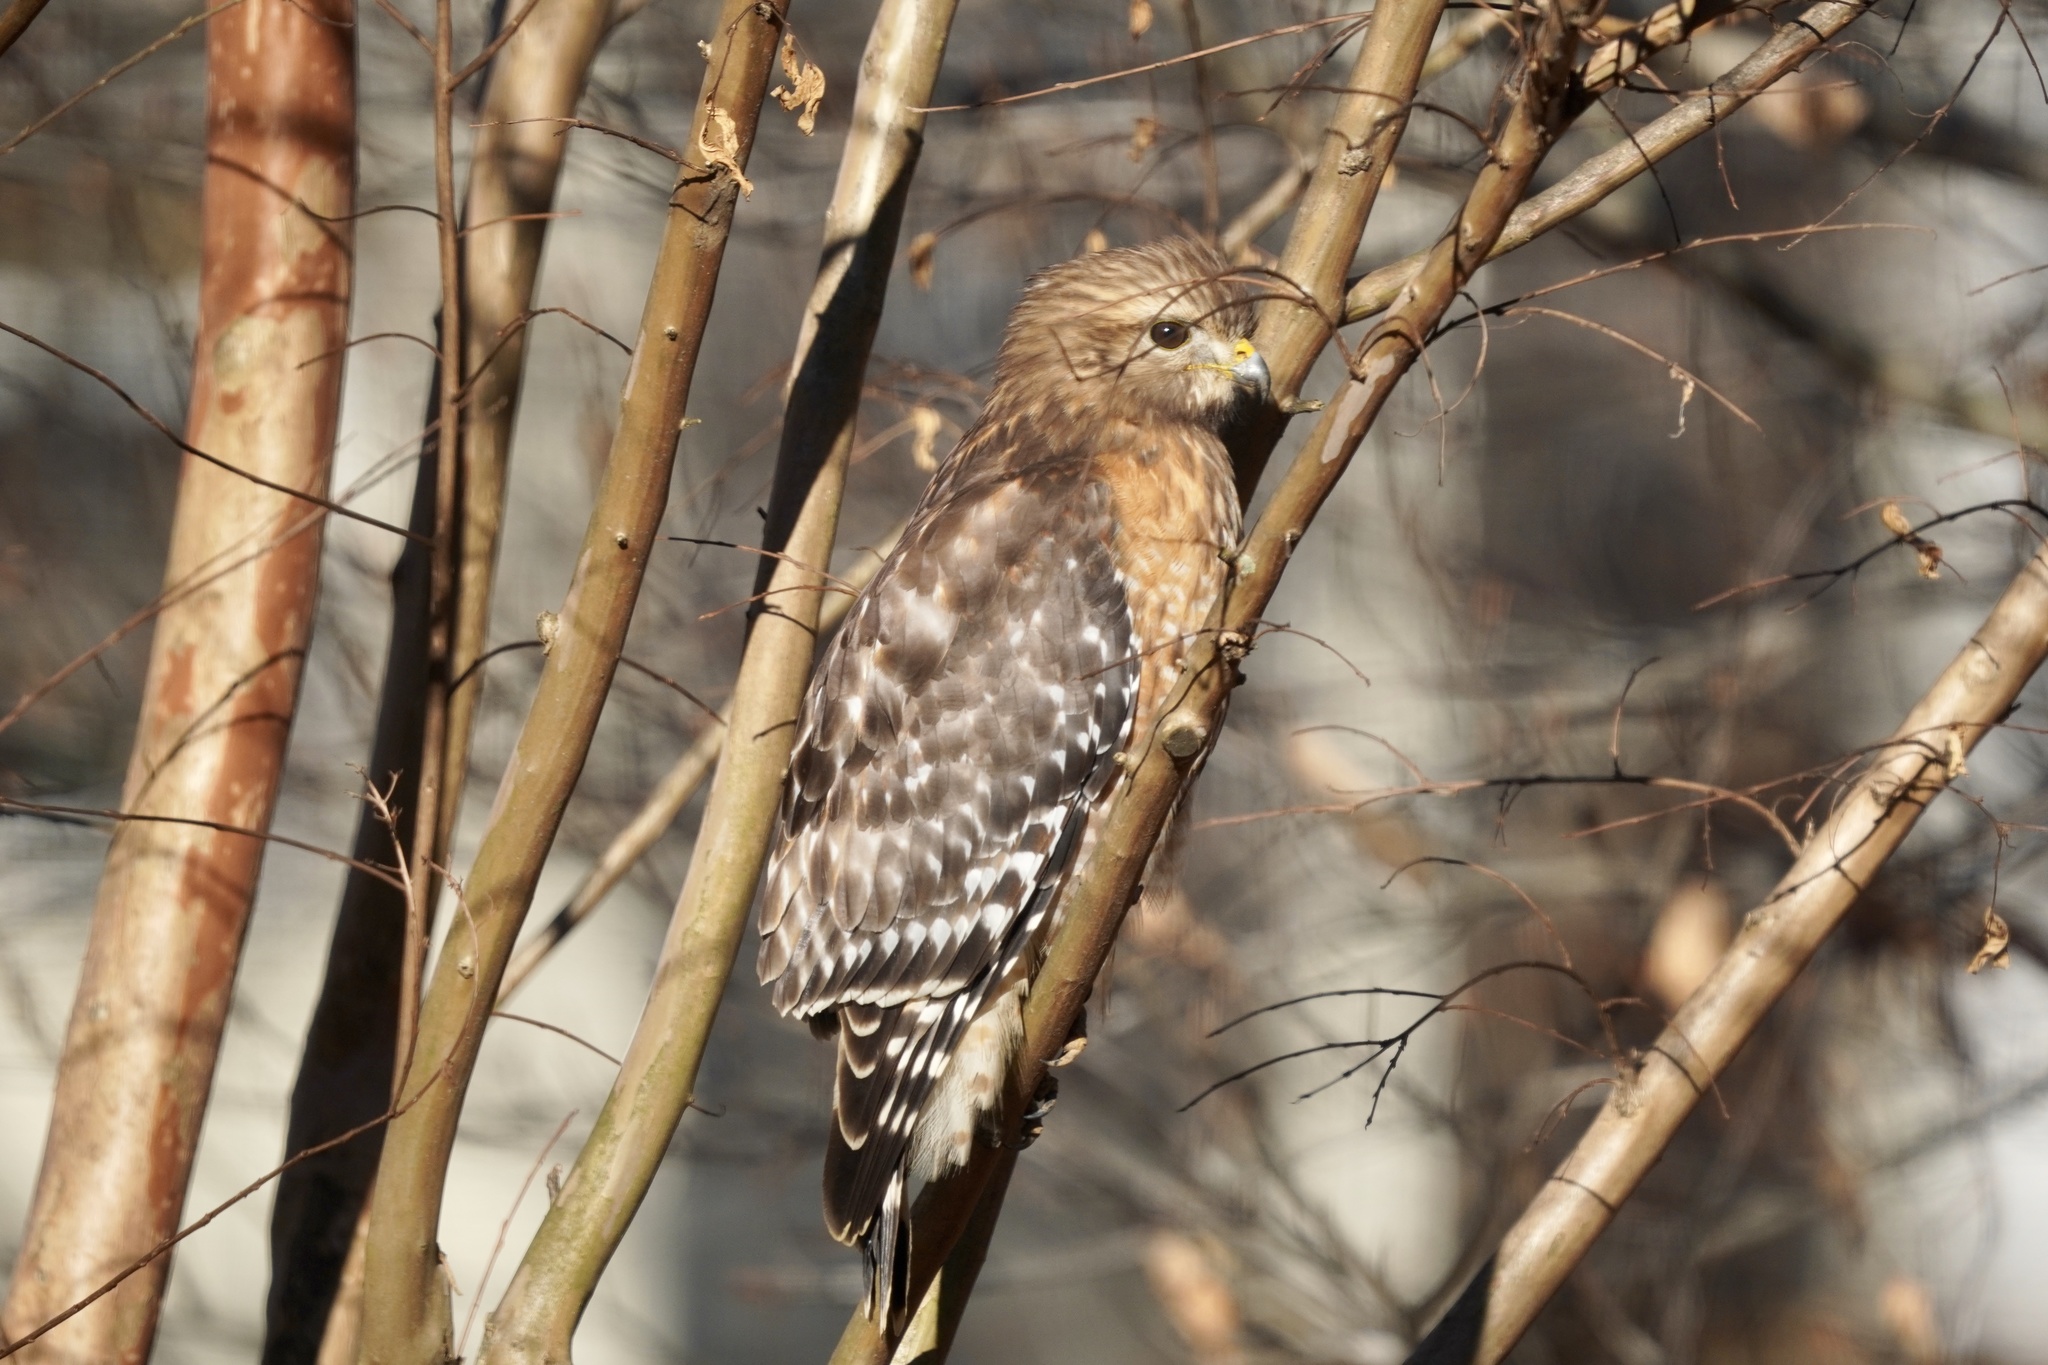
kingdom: Animalia
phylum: Chordata
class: Aves
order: Accipitriformes
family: Accipitridae
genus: Buteo
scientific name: Buteo lineatus
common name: Red-shouldered hawk
